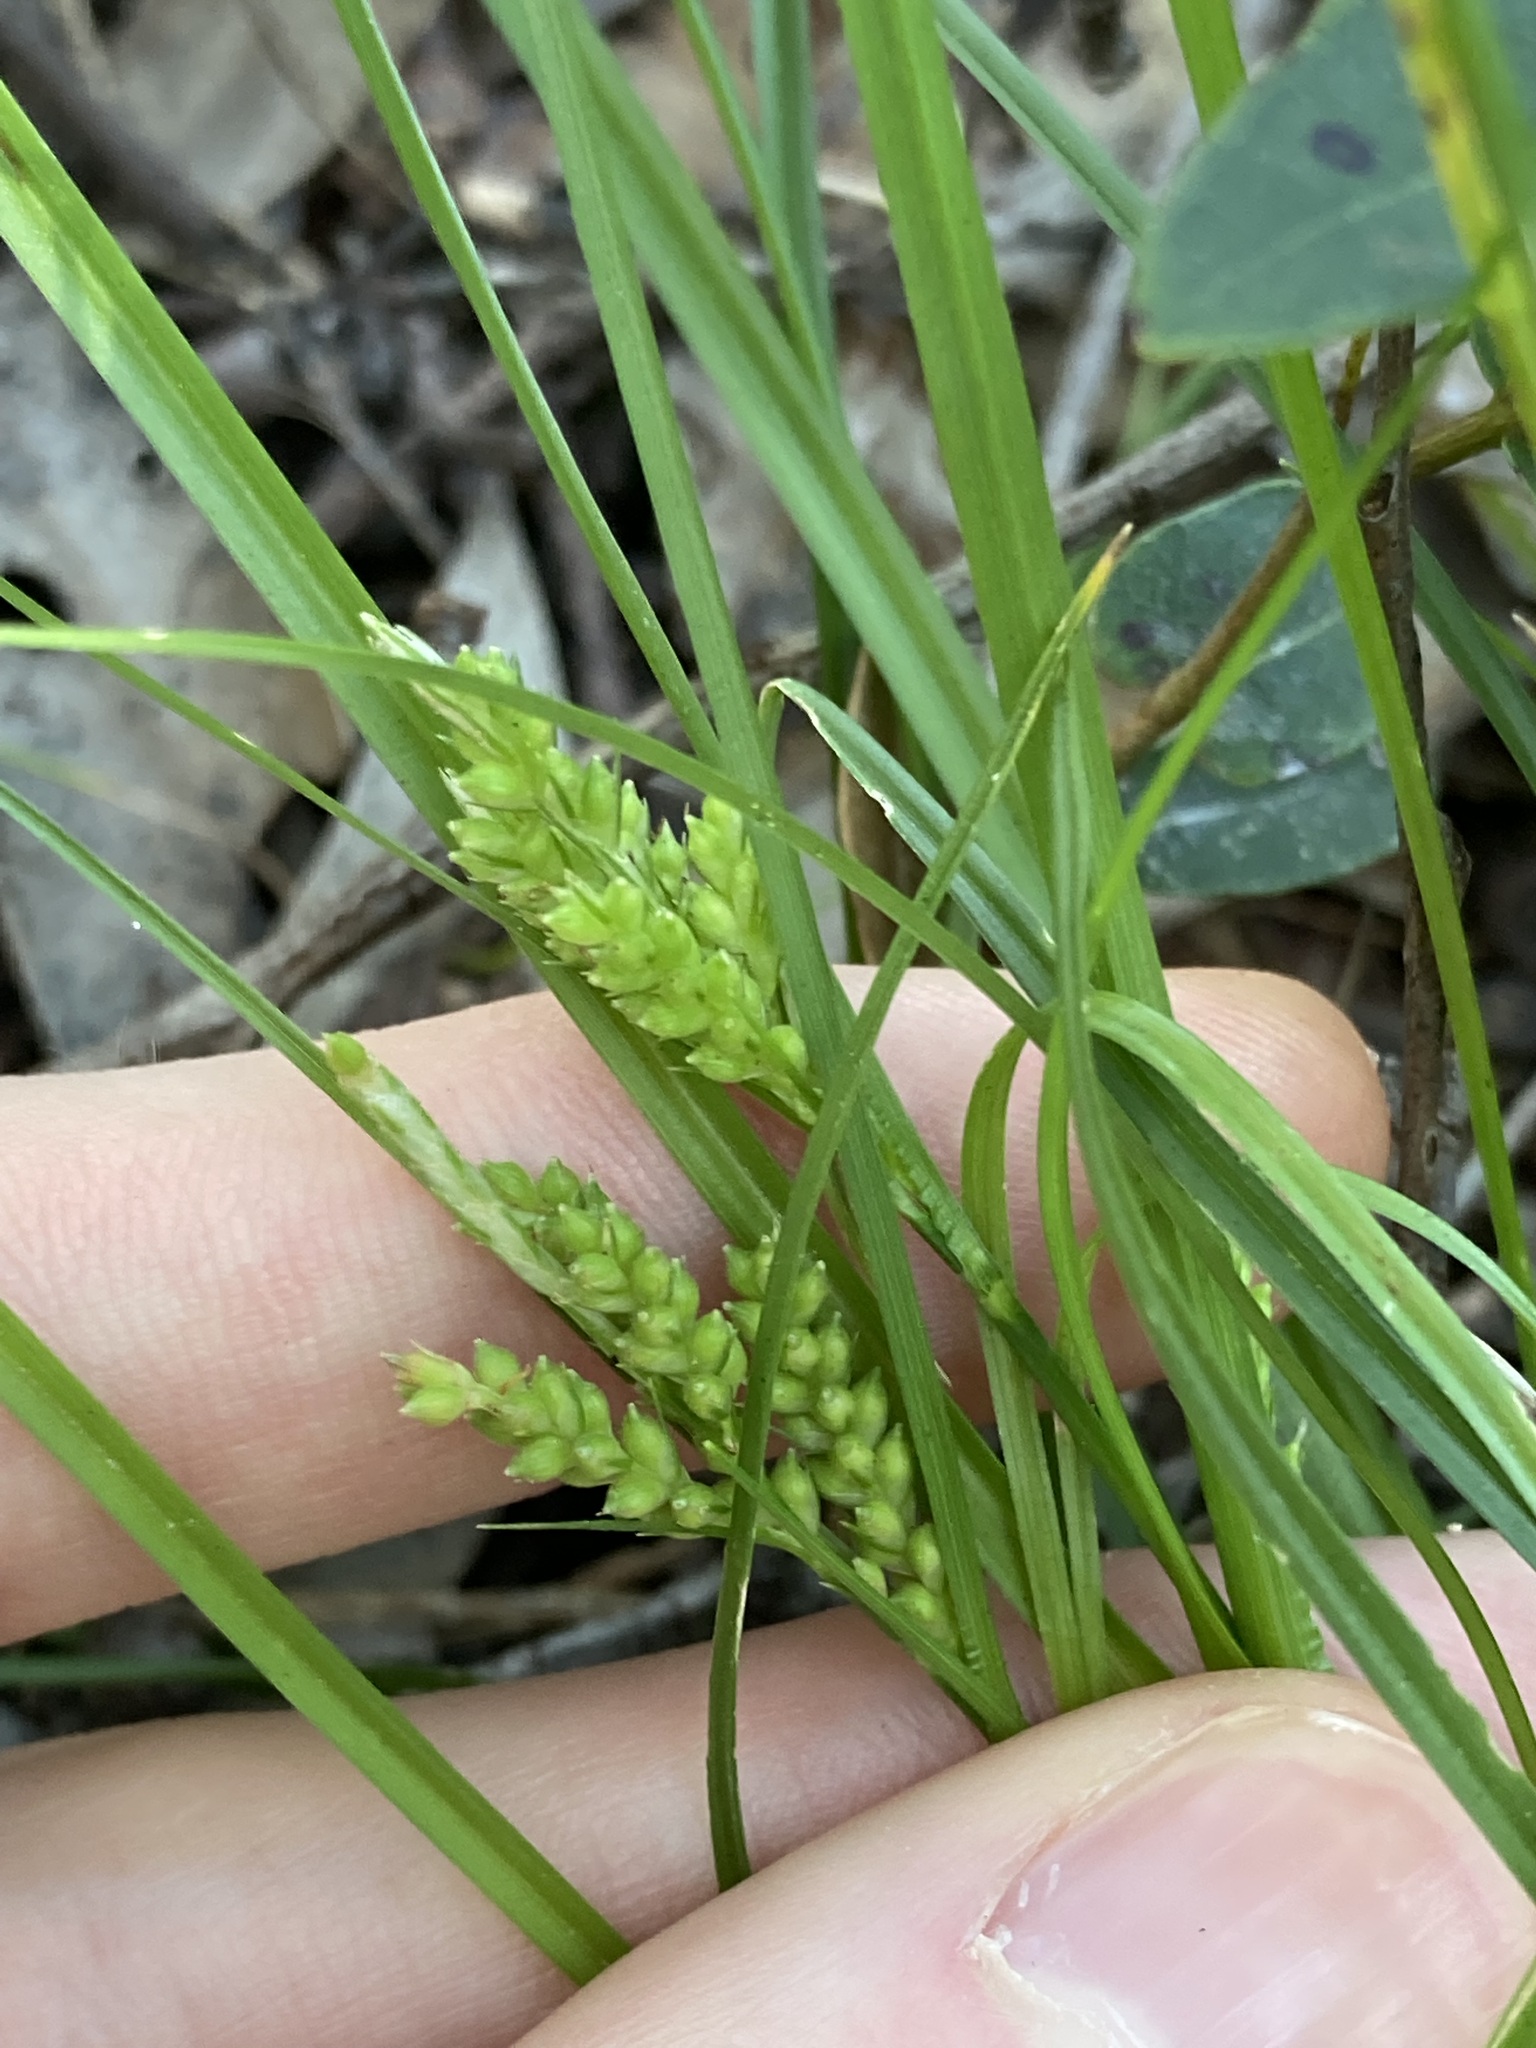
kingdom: Plantae
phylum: Tracheophyta
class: Liliopsida
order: Poales
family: Cyperaceae
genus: Carex
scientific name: Carex breviculmis
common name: Asian shortstem sedge
